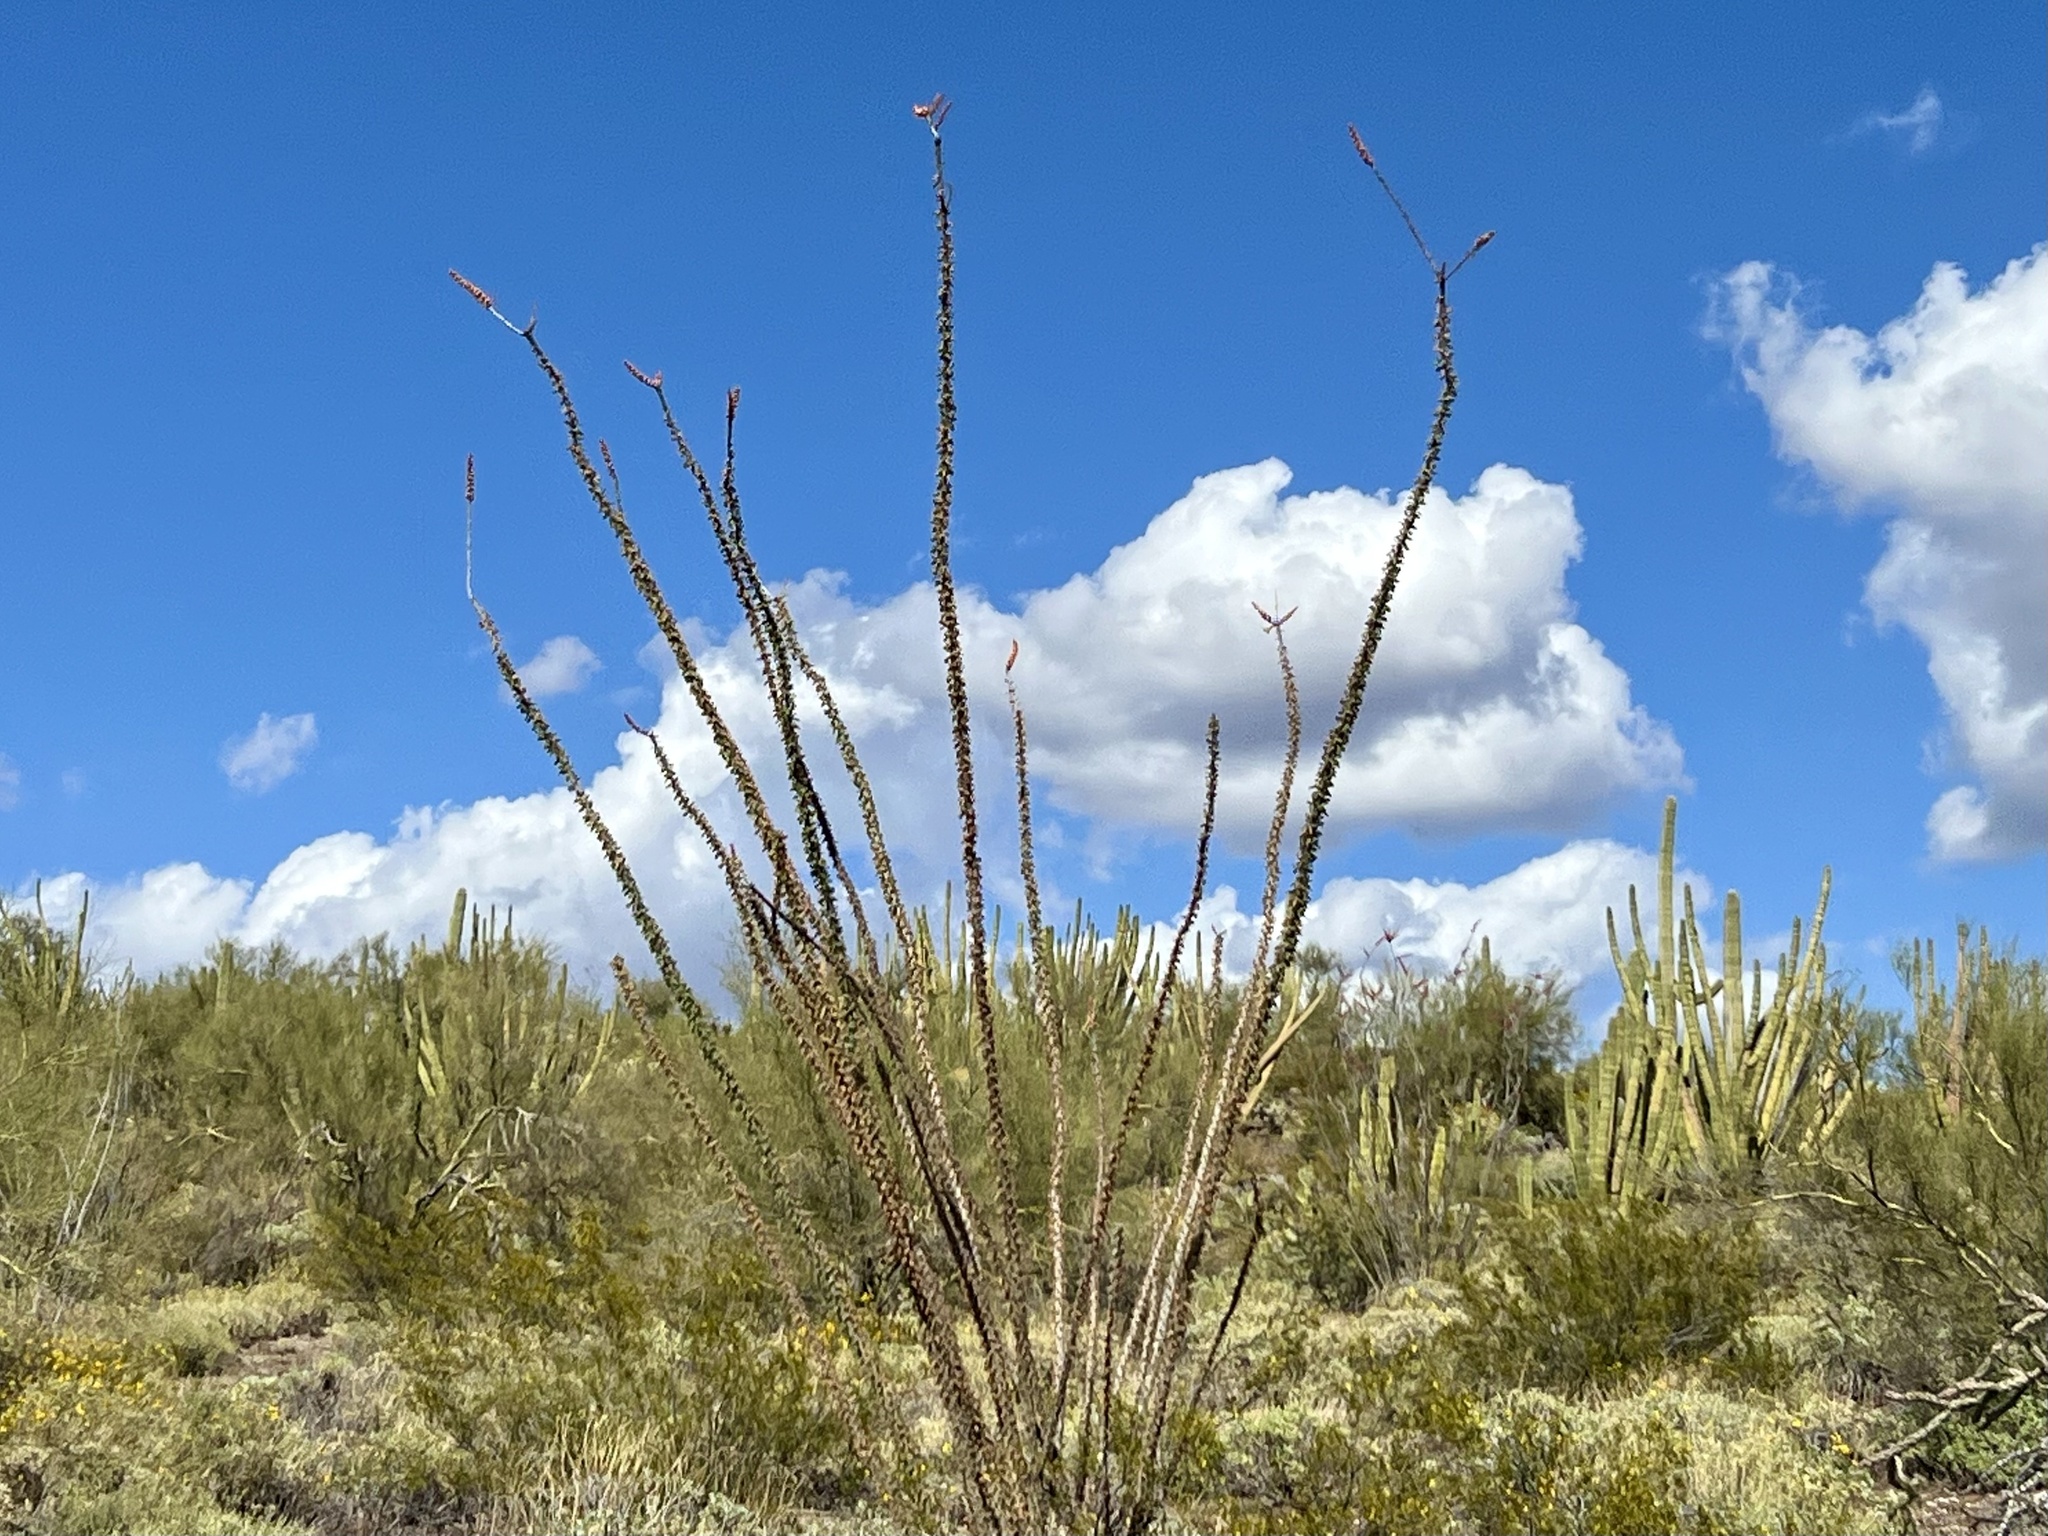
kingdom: Plantae
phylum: Tracheophyta
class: Magnoliopsida
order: Ericales
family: Fouquieriaceae
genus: Fouquieria
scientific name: Fouquieria splendens
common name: Vine-cactus
